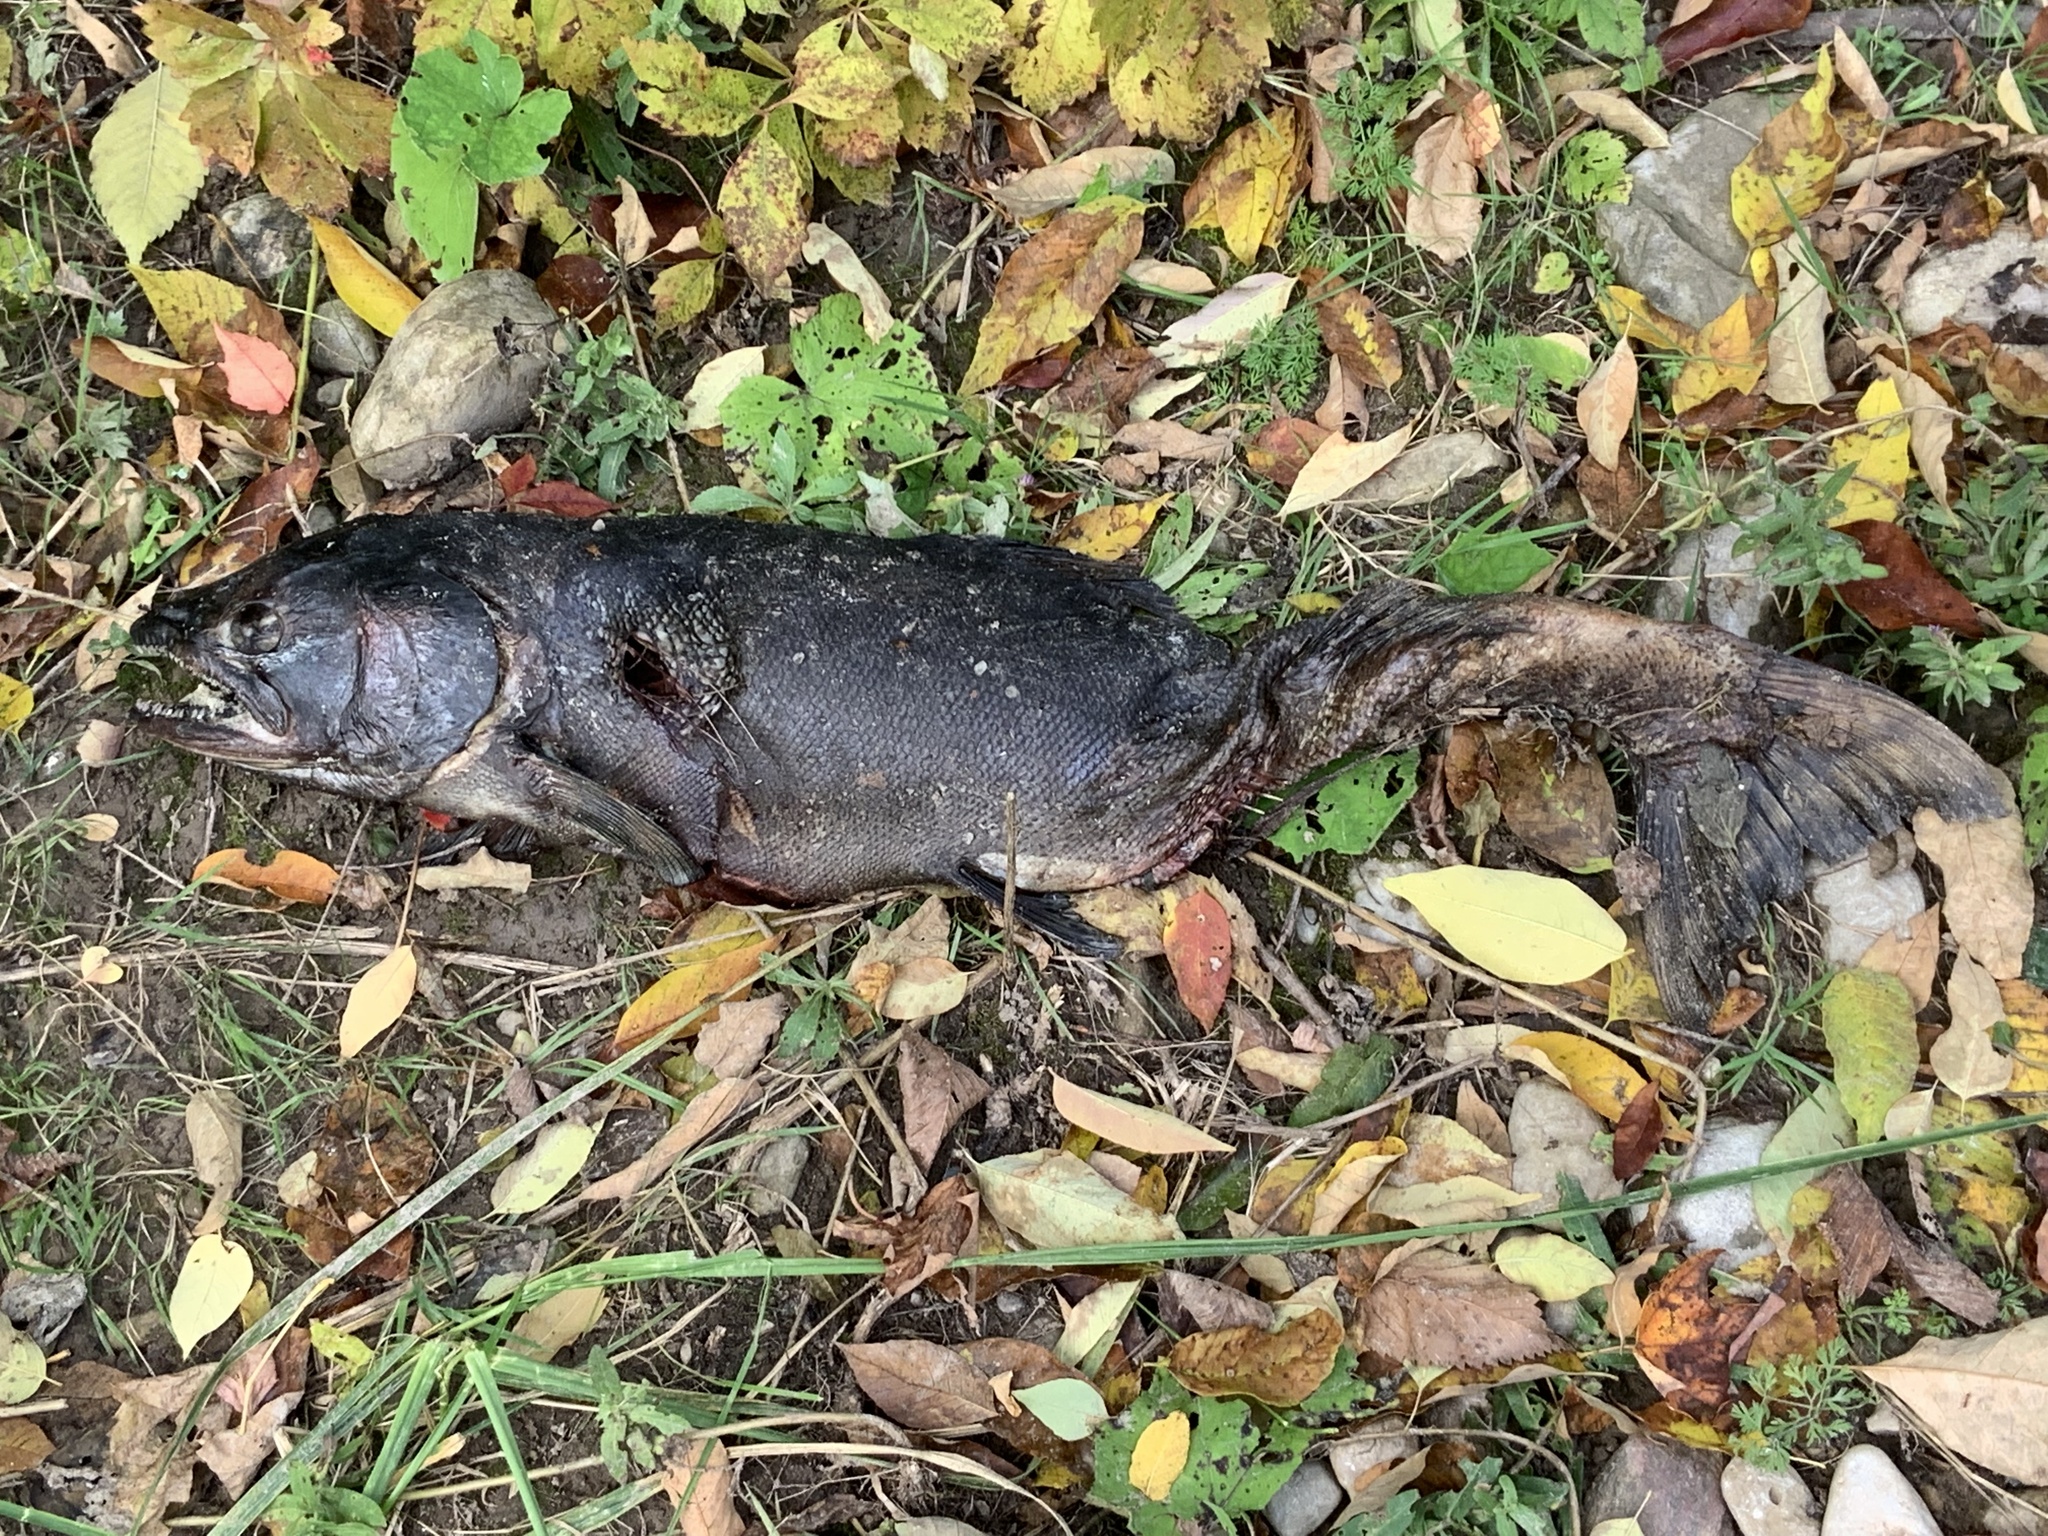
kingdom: Animalia
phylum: Chordata
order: Salmoniformes
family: Salmonidae
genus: Oncorhynchus
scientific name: Oncorhynchus tshawytscha
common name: Chinook salmon
